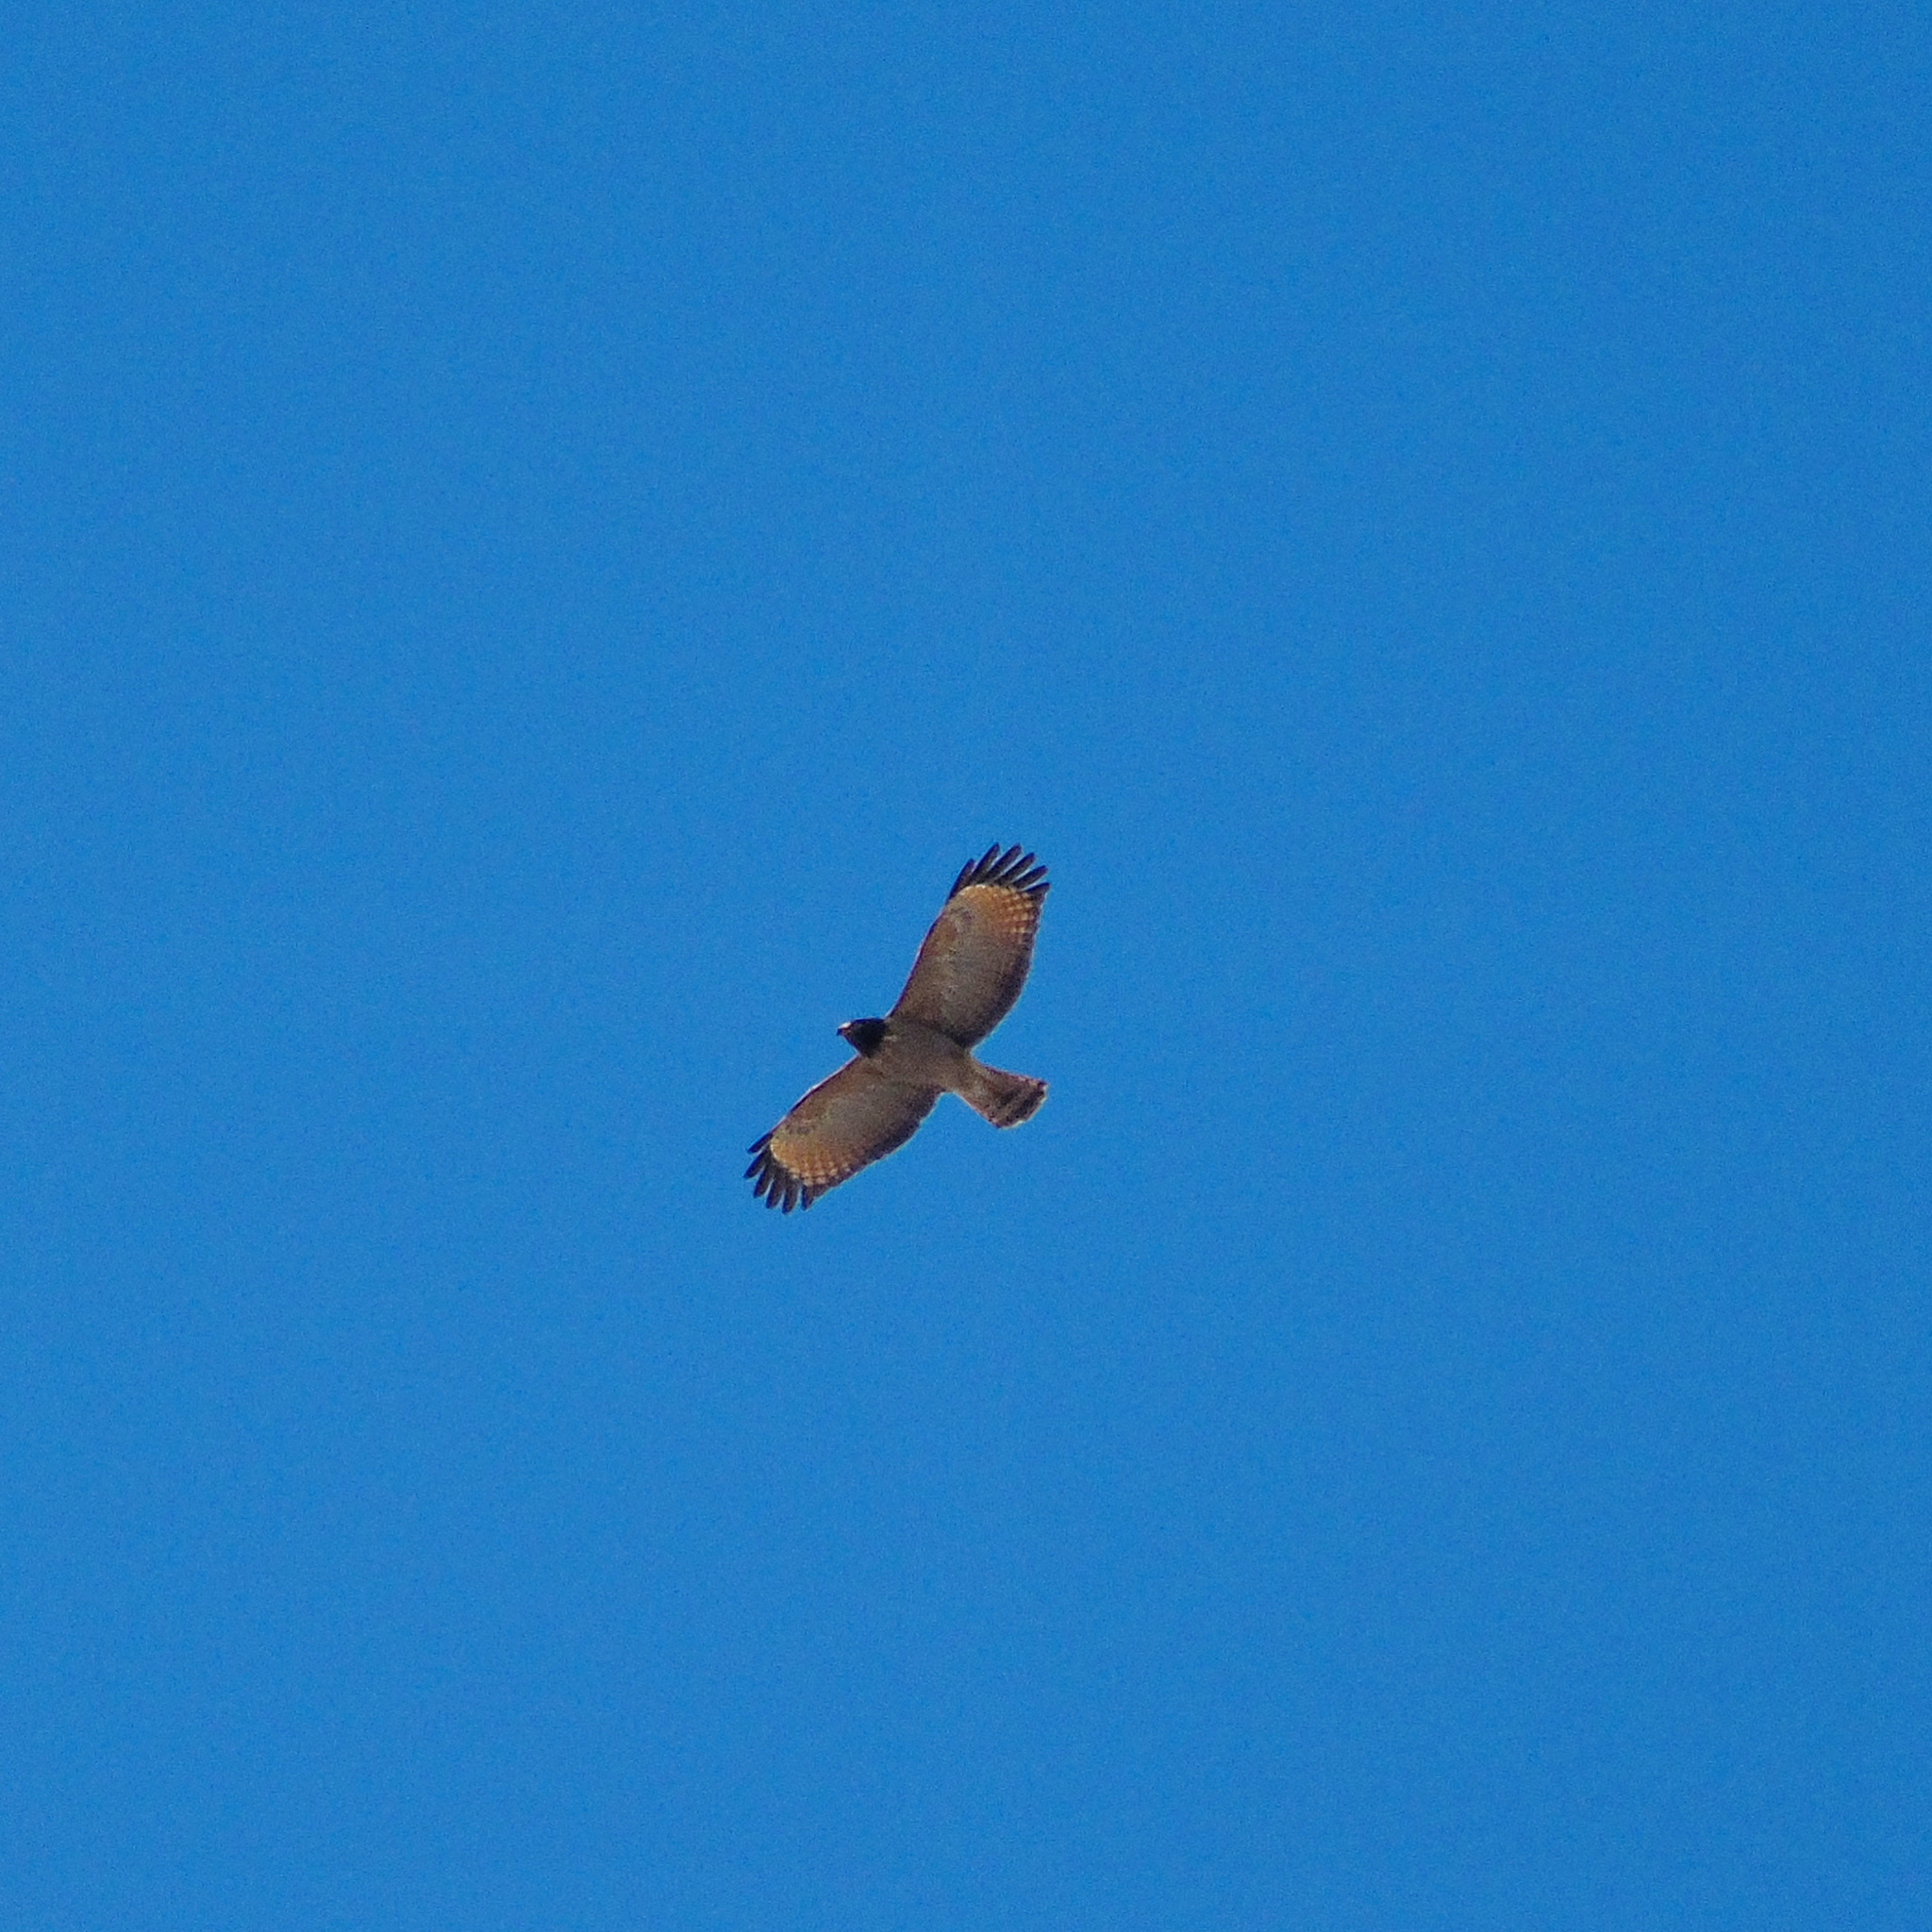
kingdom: Animalia
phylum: Chordata
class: Aves
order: Accipitriformes
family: Accipitridae
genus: Rupornis
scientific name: Rupornis magnirostris
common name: Roadside hawk
